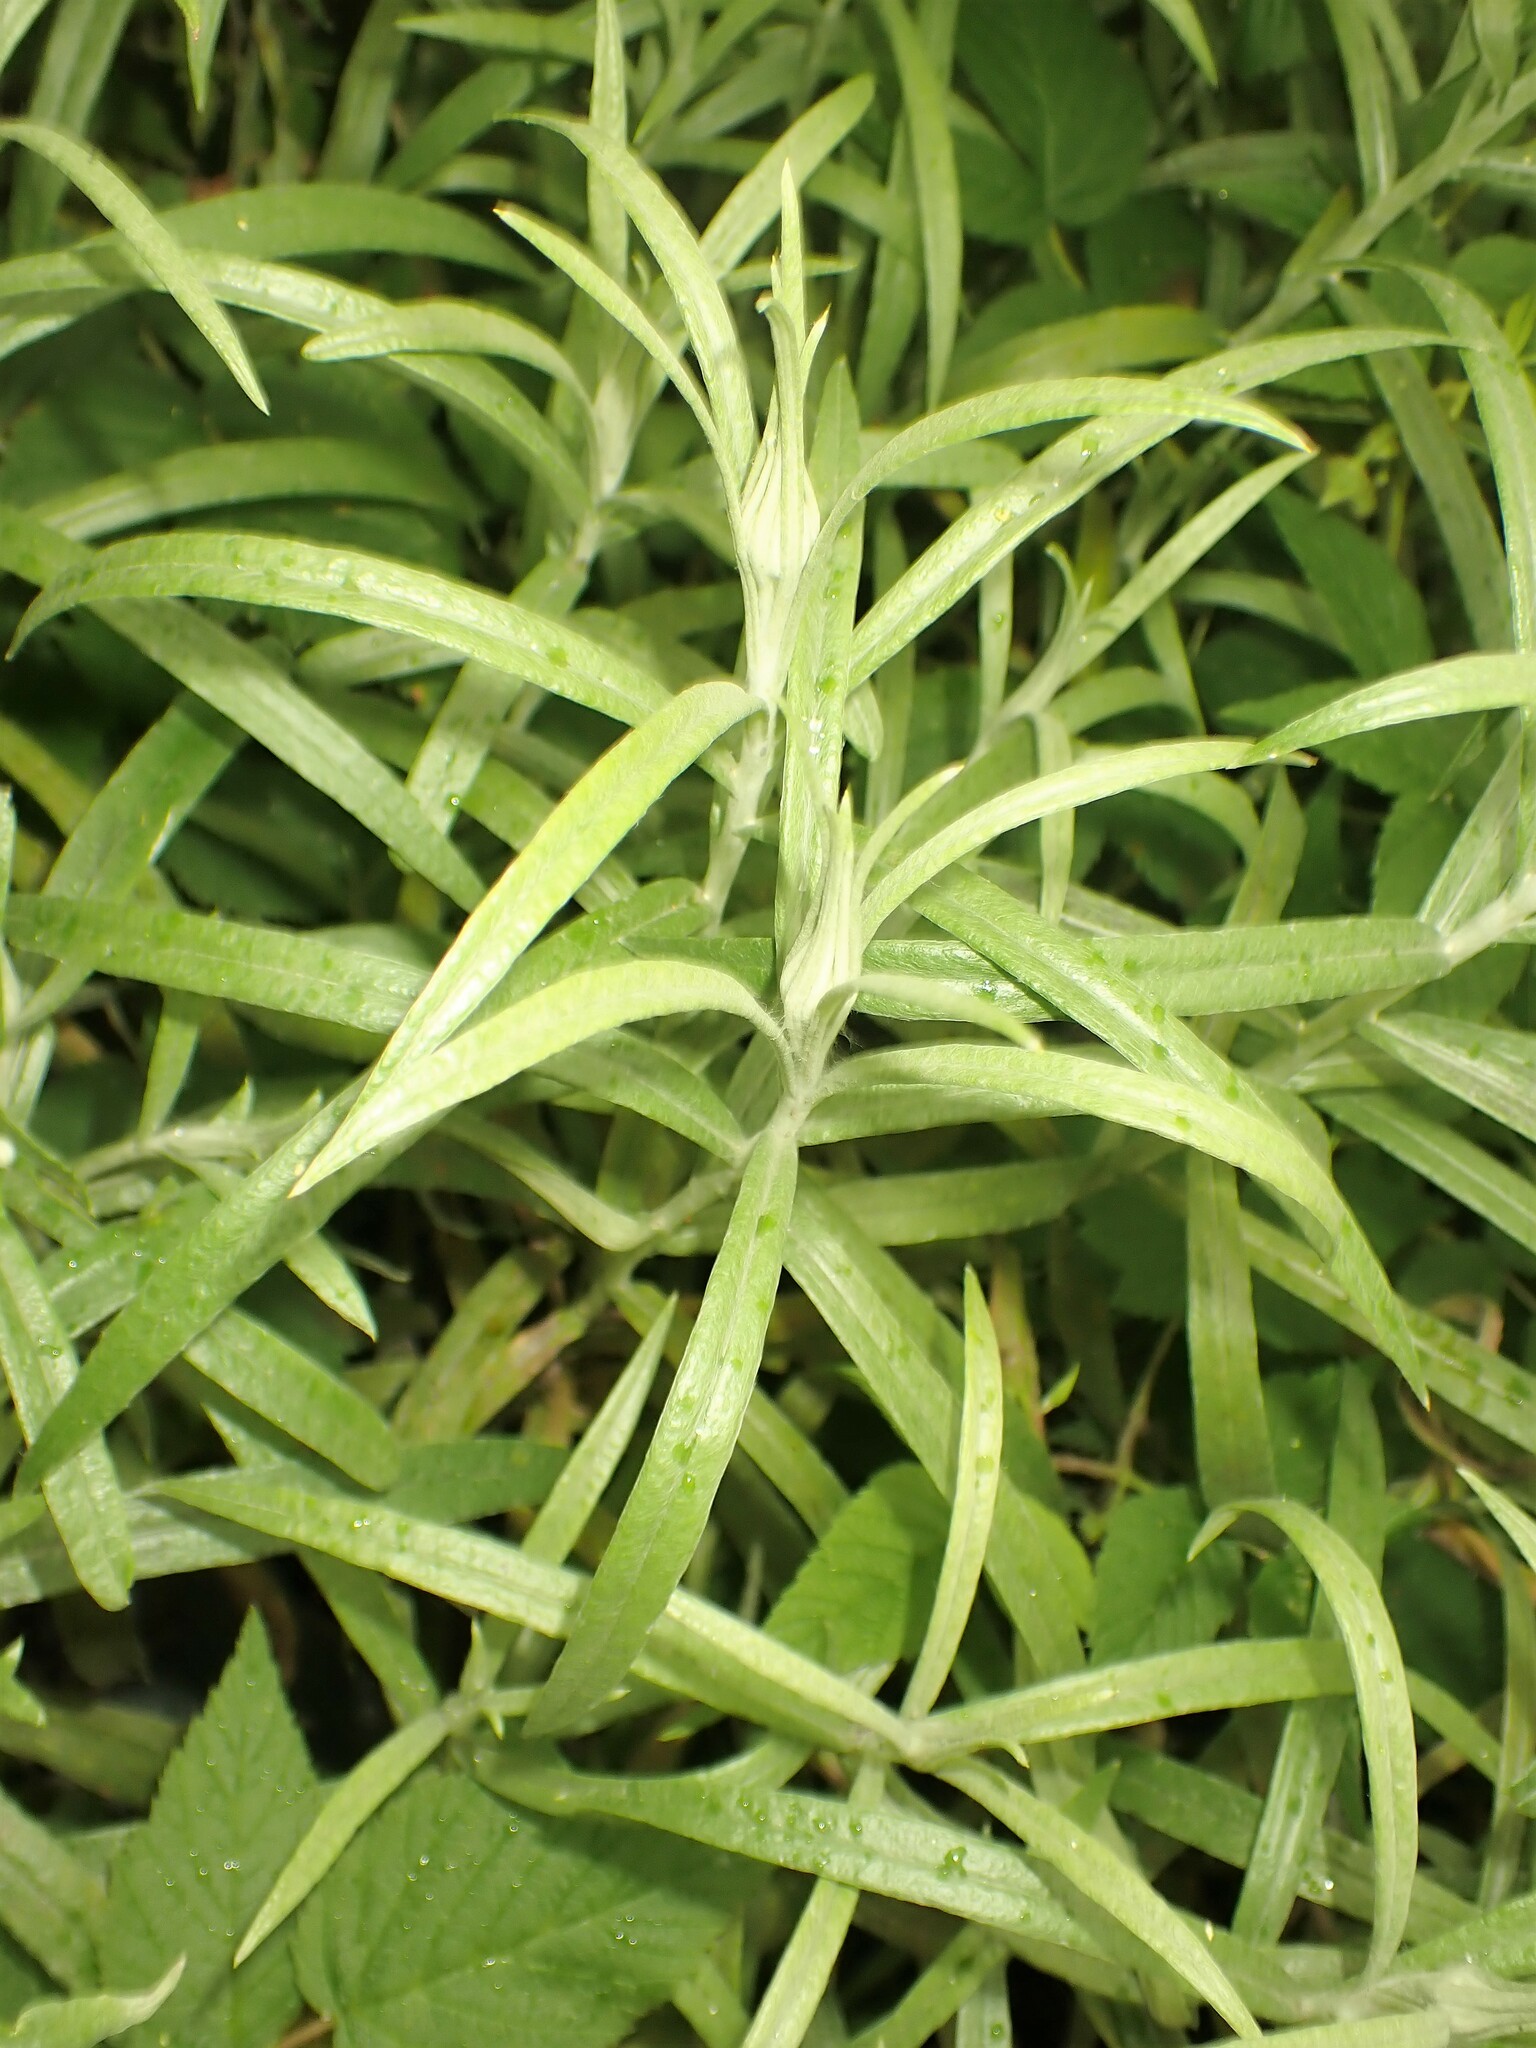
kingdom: Plantae
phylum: Tracheophyta
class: Magnoliopsida
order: Asterales
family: Asteraceae
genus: Anaphalis
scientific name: Anaphalis margaritacea
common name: Pearly everlasting
